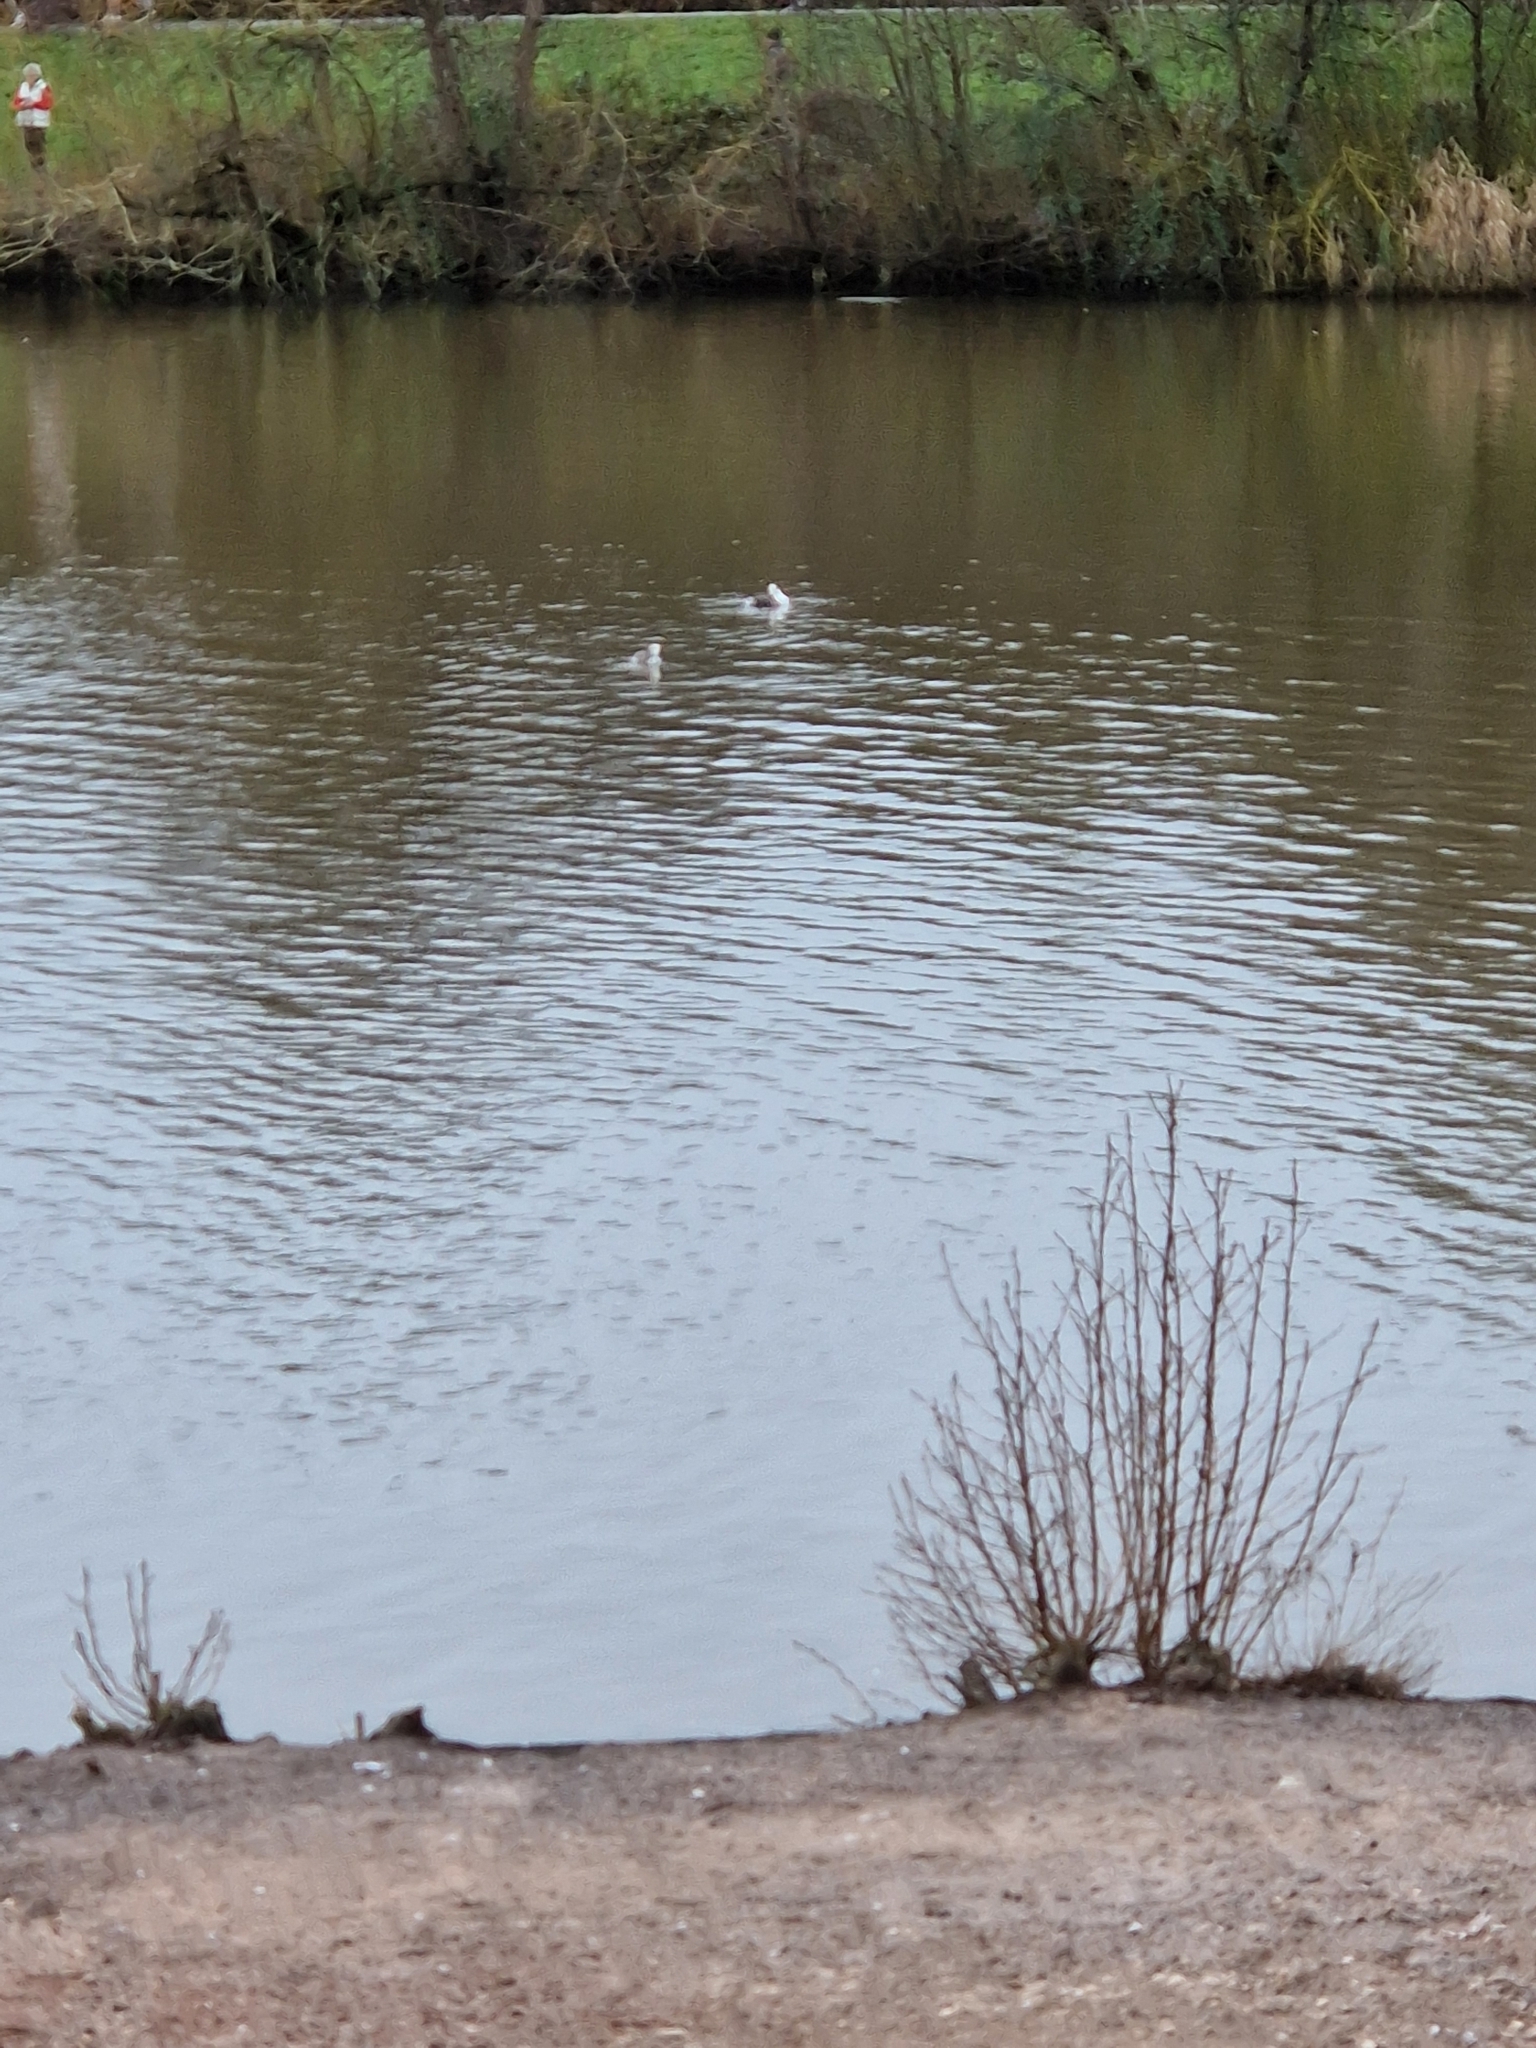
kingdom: Animalia
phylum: Chordata
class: Aves
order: Podicipediformes
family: Podicipedidae
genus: Podiceps
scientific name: Podiceps cristatus
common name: Great crested grebe
